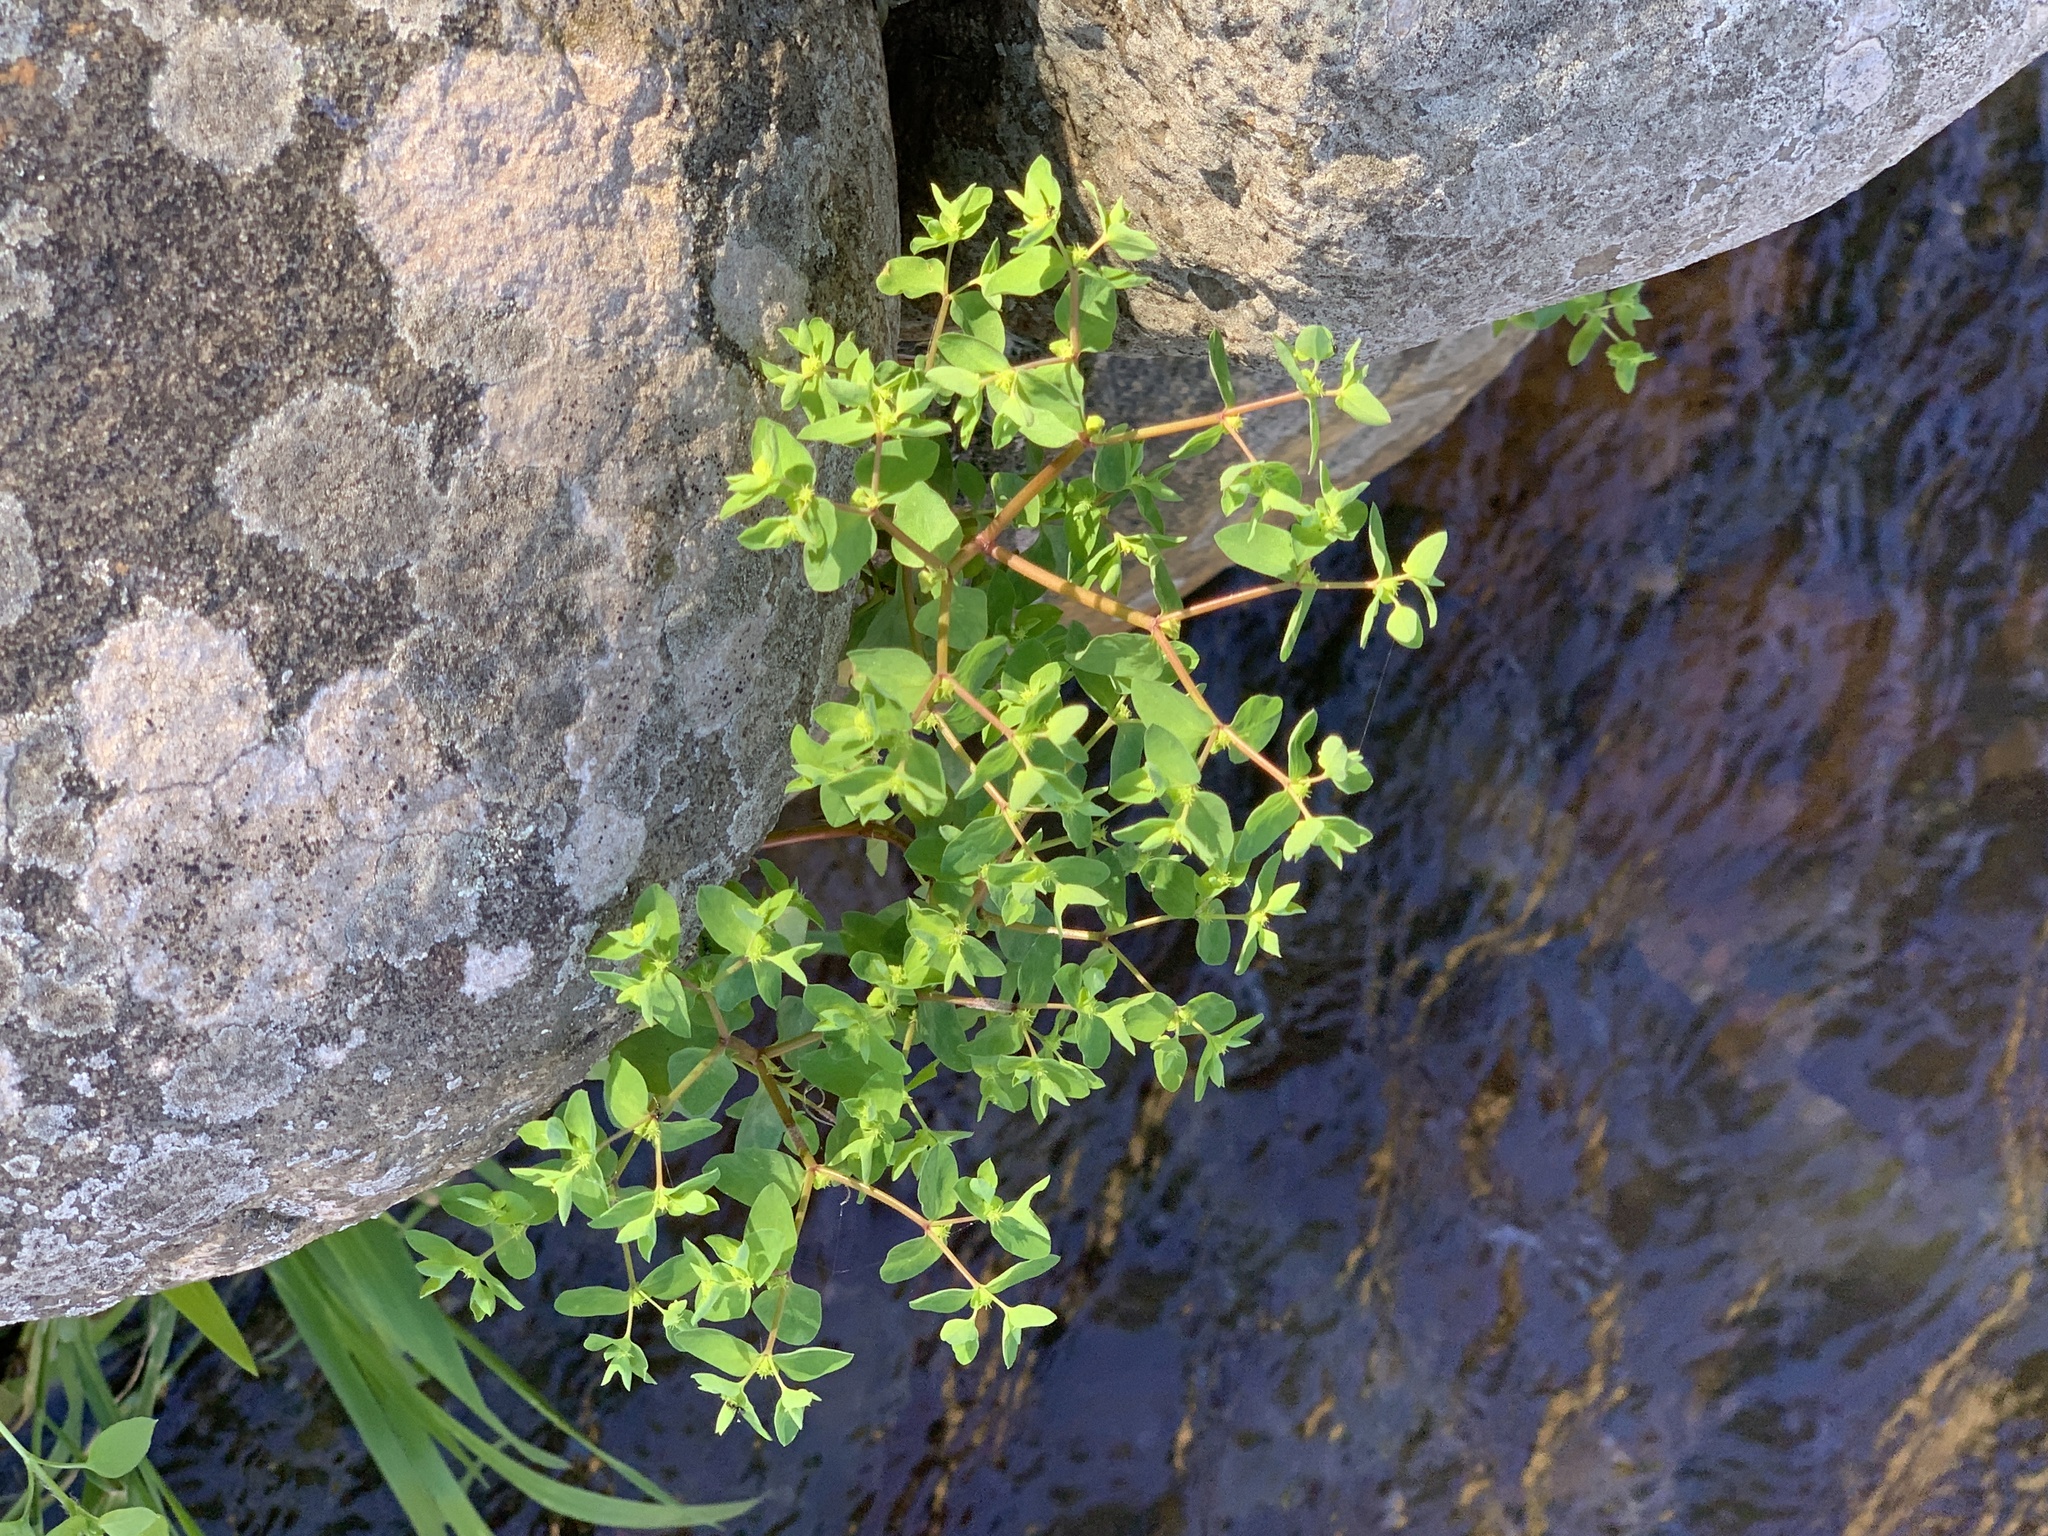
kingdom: Plantae
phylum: Tracheophyta
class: Magnoliopsida
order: Malpighiales
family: Euphorbiaceae
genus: Euphorbia
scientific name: Euphorbia peplus
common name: Petty spurge
